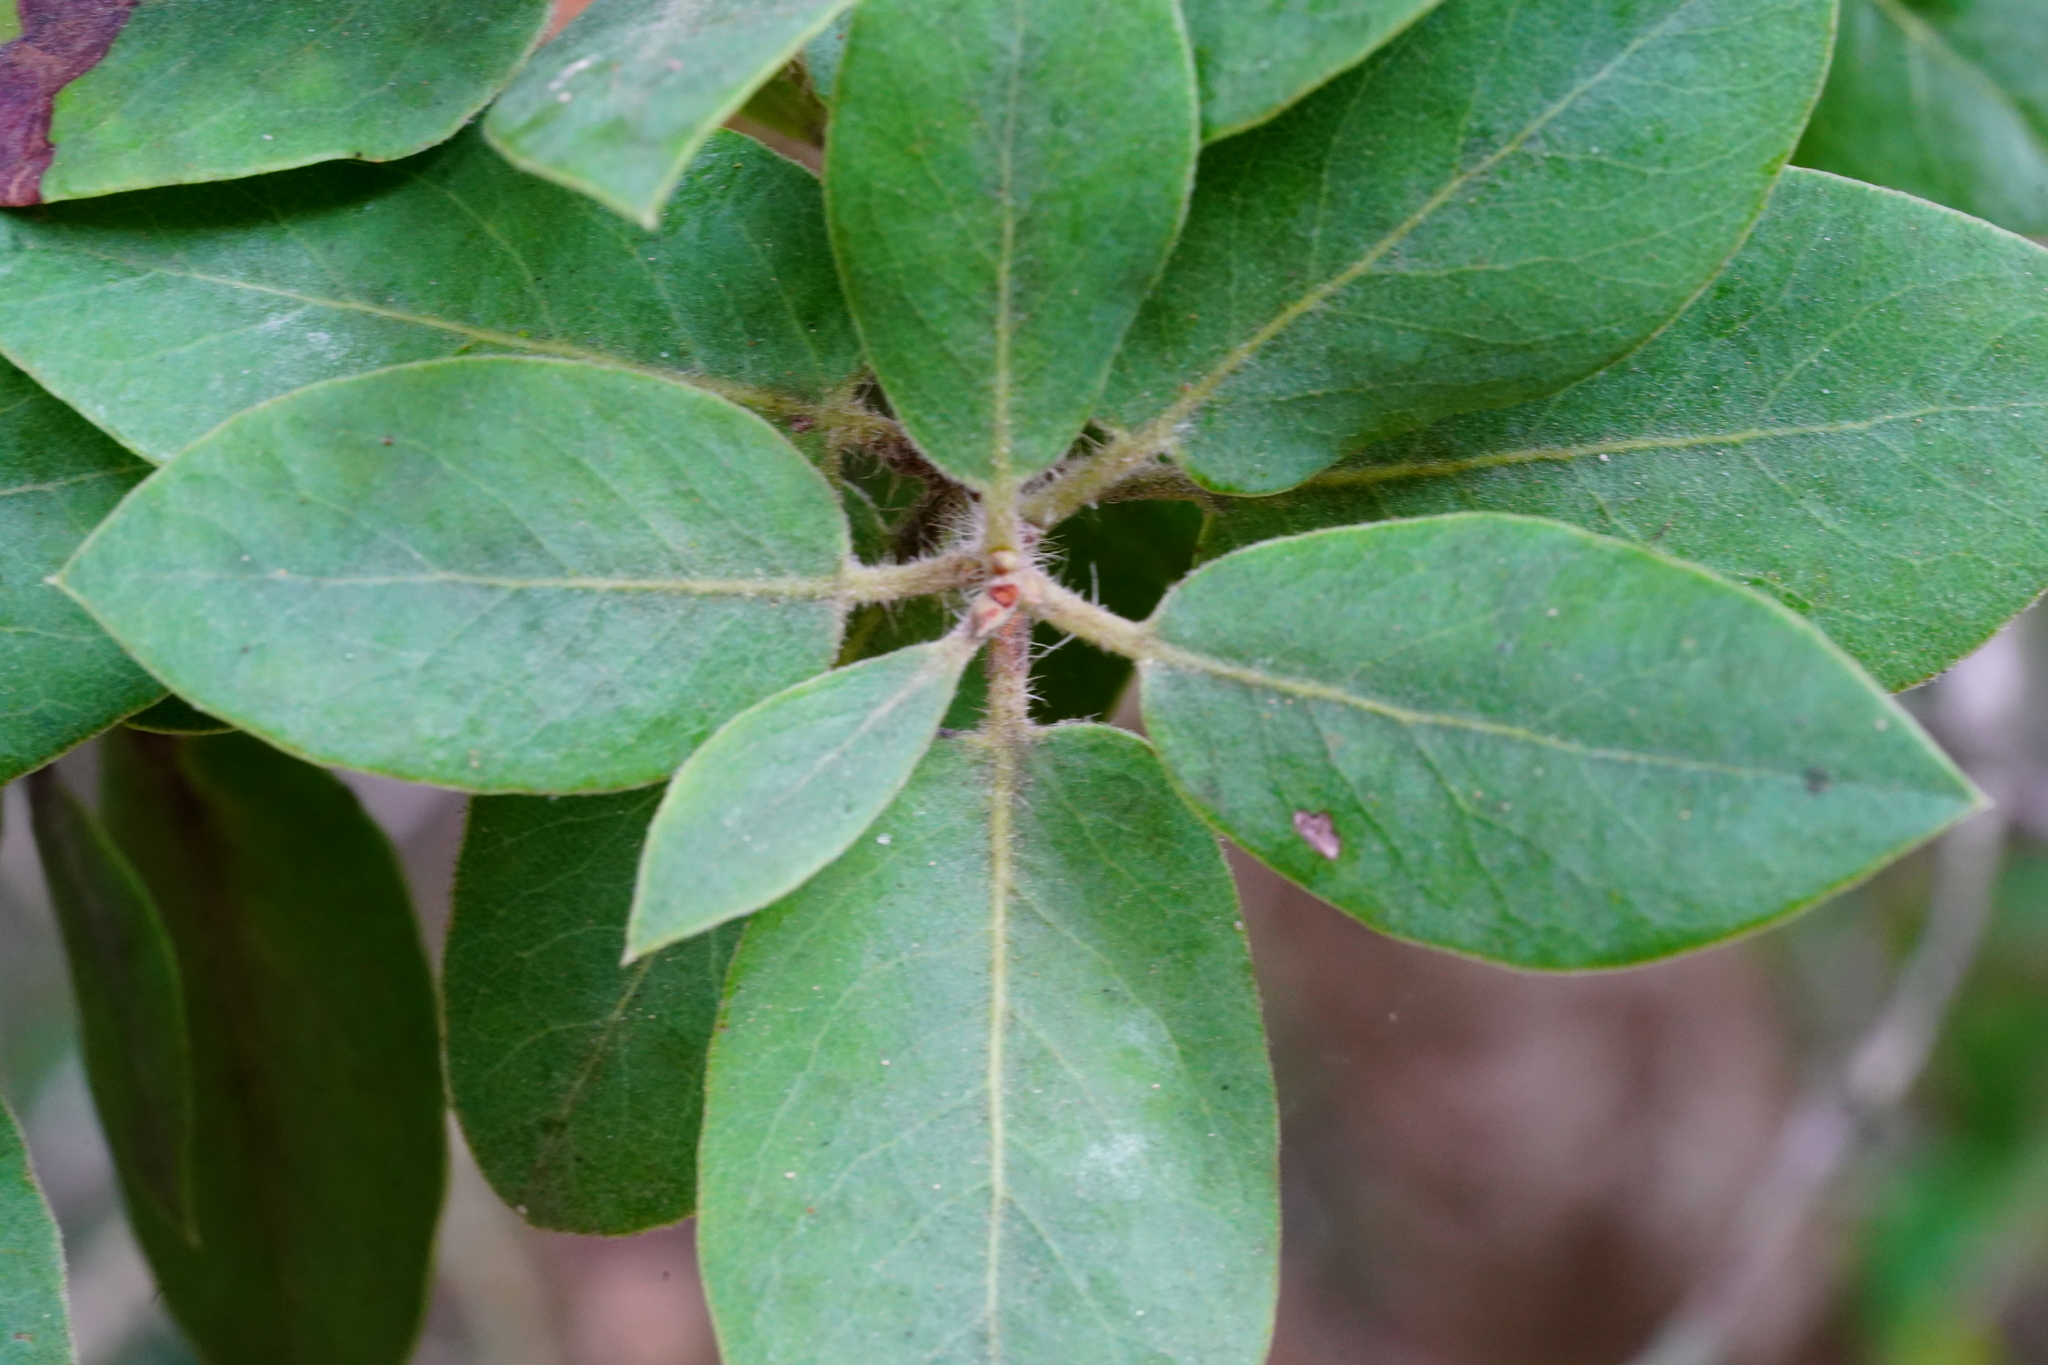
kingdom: Plantae
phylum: Tracheophyta
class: Magnoliopsida
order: Ericales
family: Ericaceae
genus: Arctostaphylos
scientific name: Arctostaphylos crustacea
